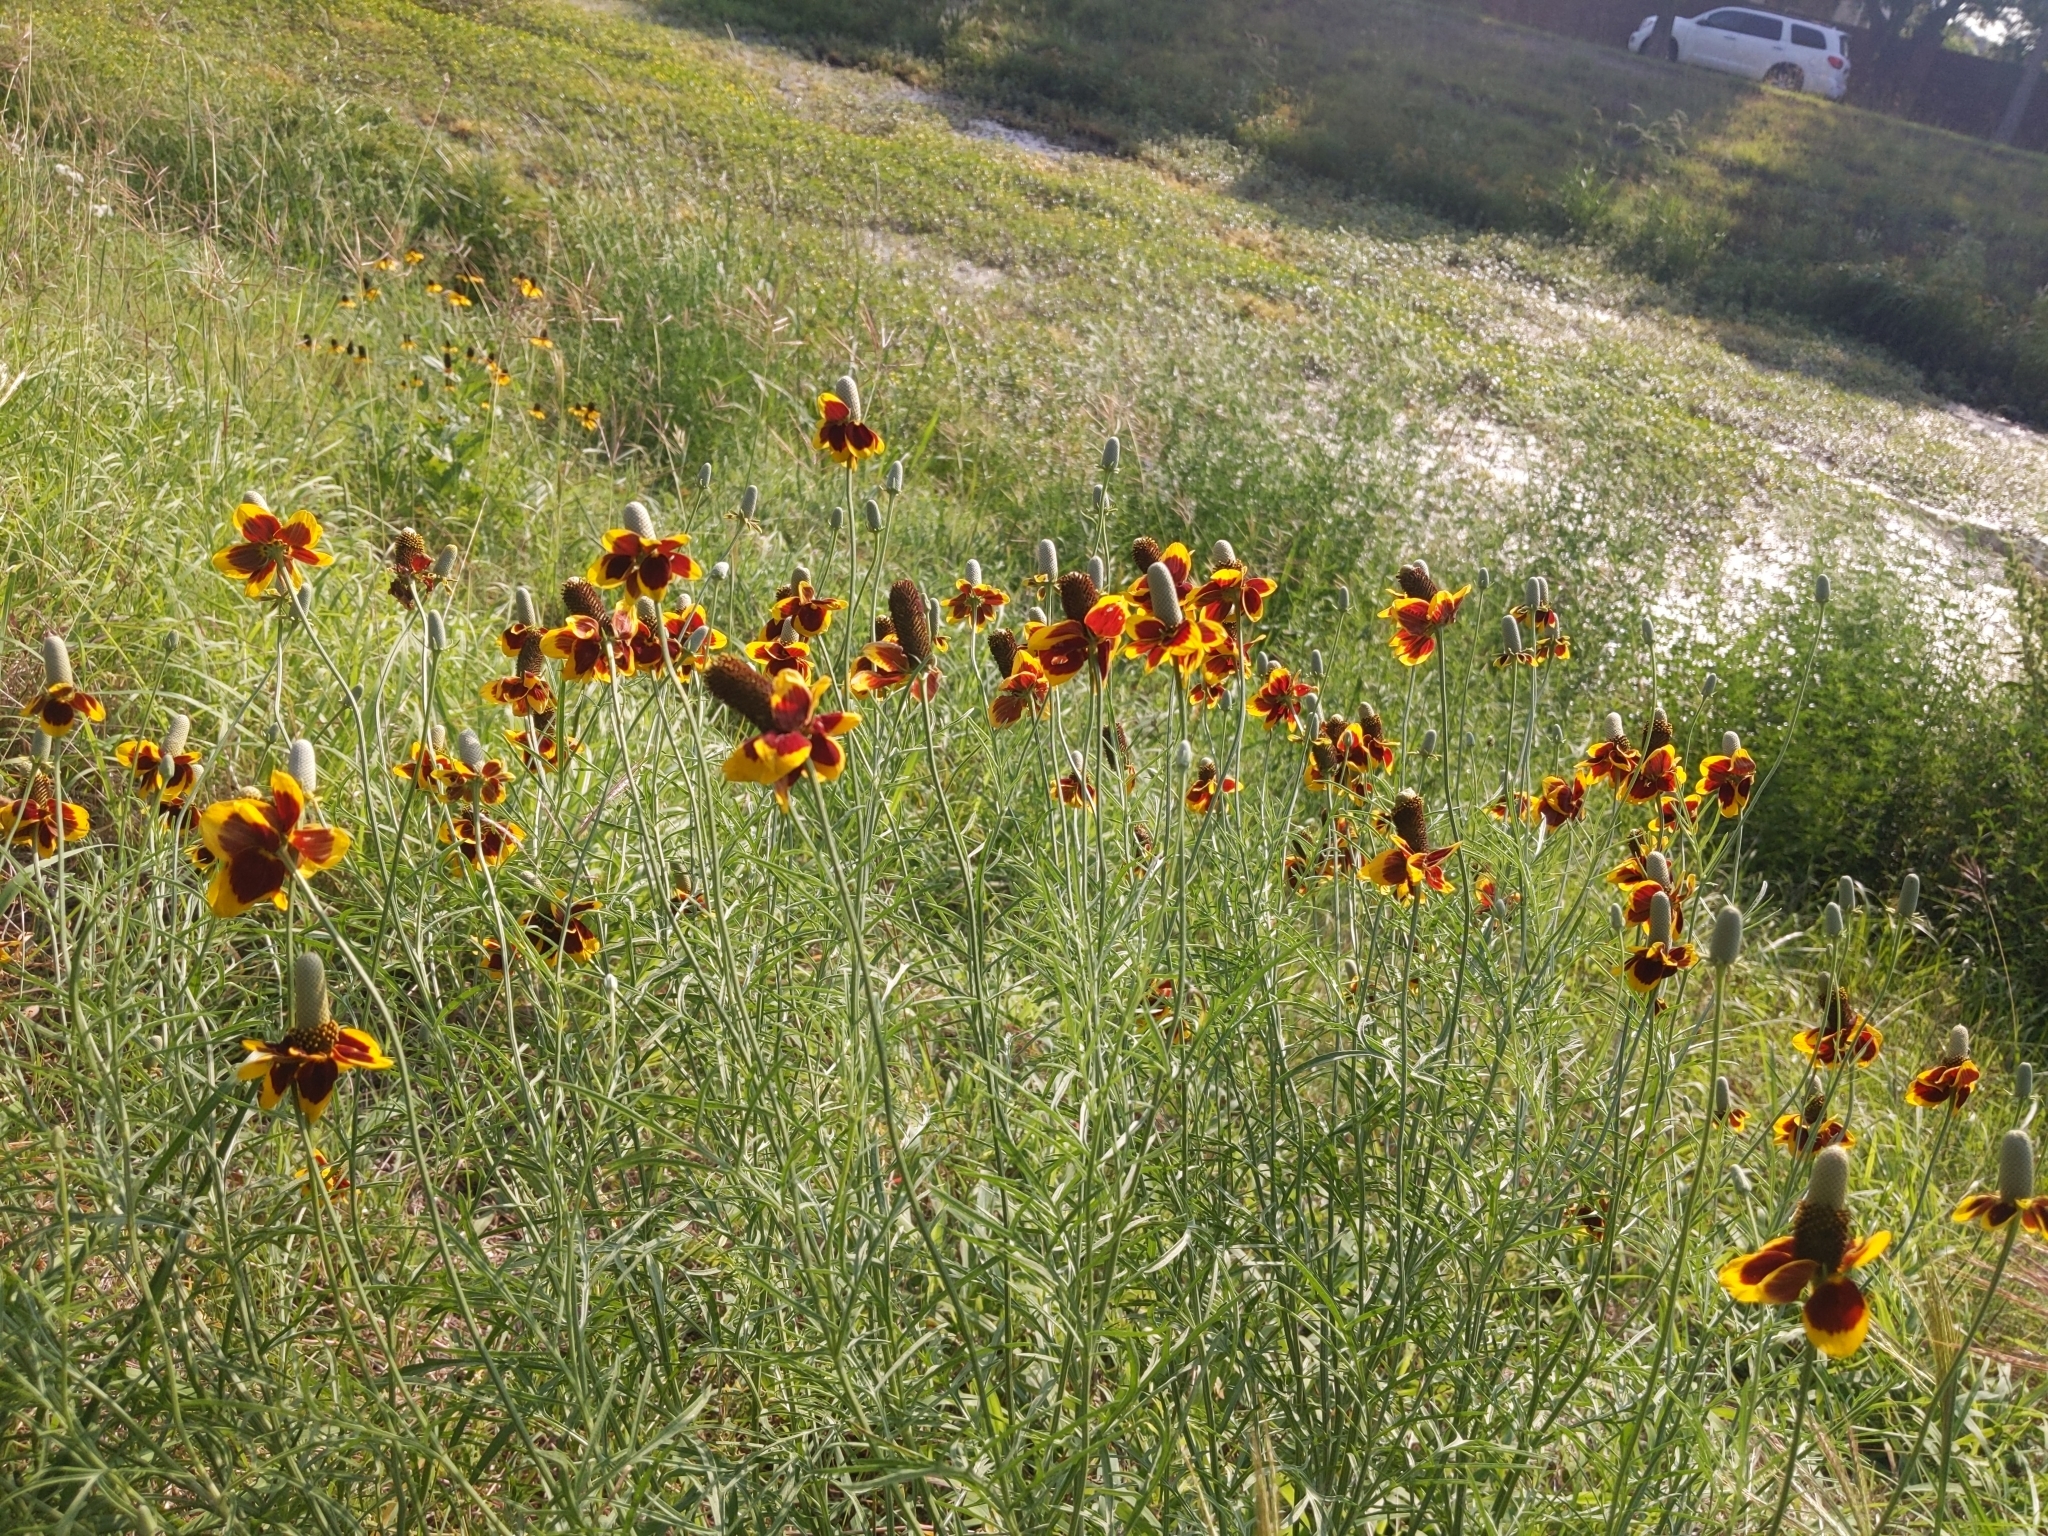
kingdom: Plantae
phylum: Tracheophyta
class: Magnoliopsida
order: Asterales
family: Asteraceae
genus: Ratibida
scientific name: Ratibida columnifera
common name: Prairie coneflower
